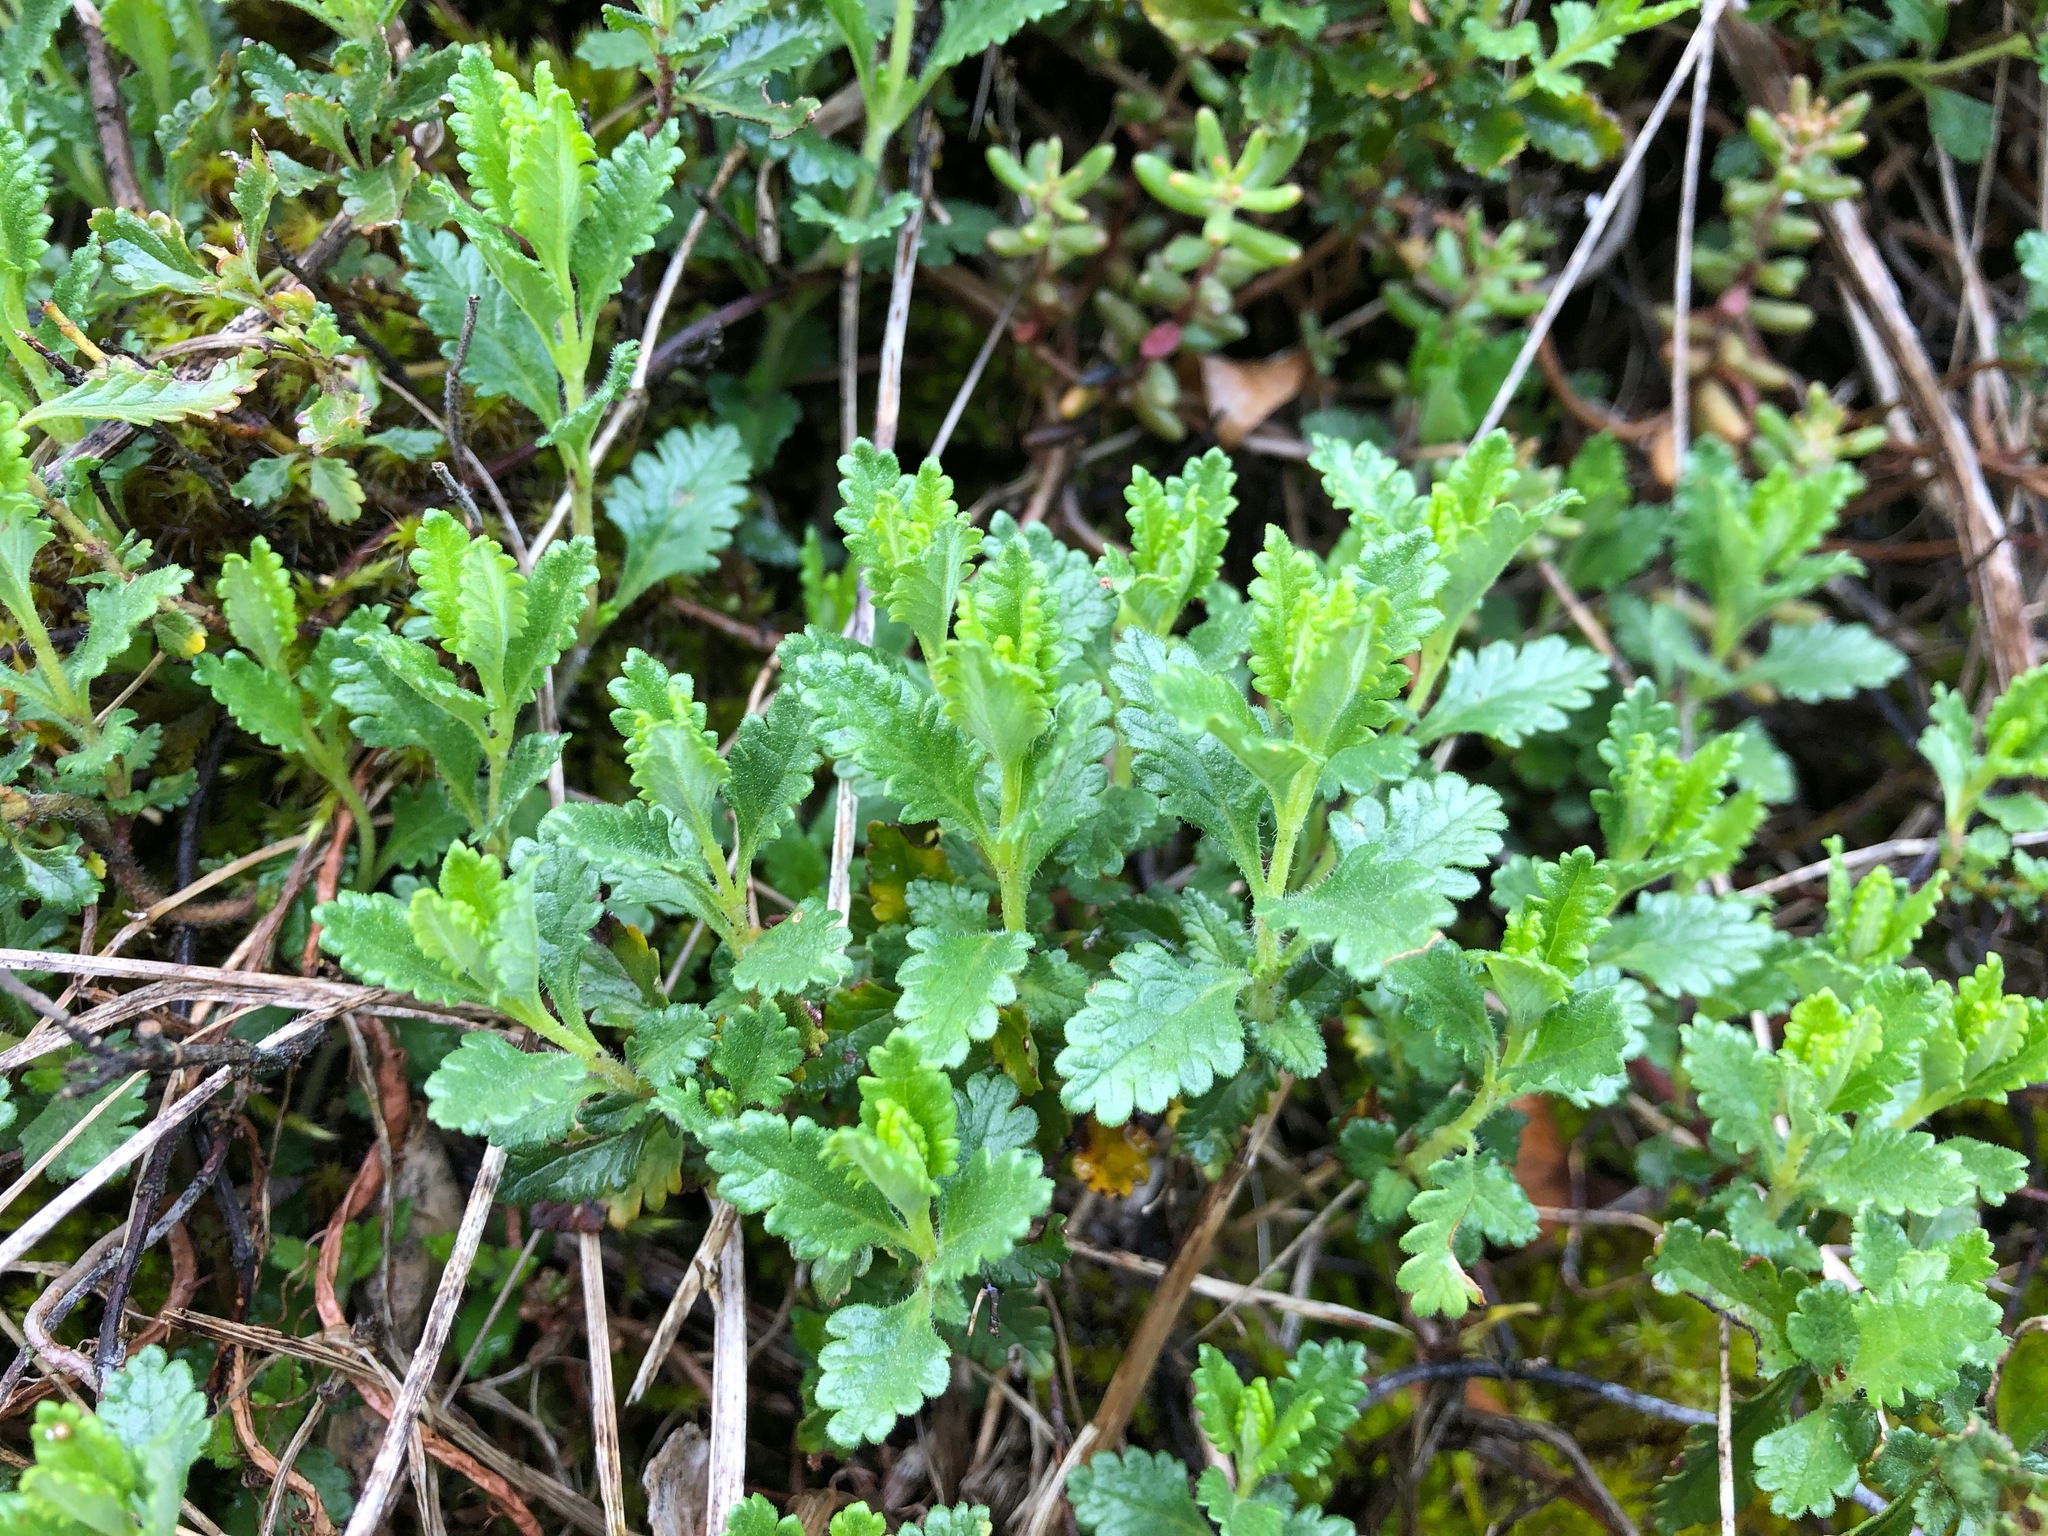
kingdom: Plantae
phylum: Tracheophyta
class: Magnoliopsida
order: Lamiales
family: Lamiaceae
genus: Teucrium
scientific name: Teucrium chamaedrys
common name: Wall germander
